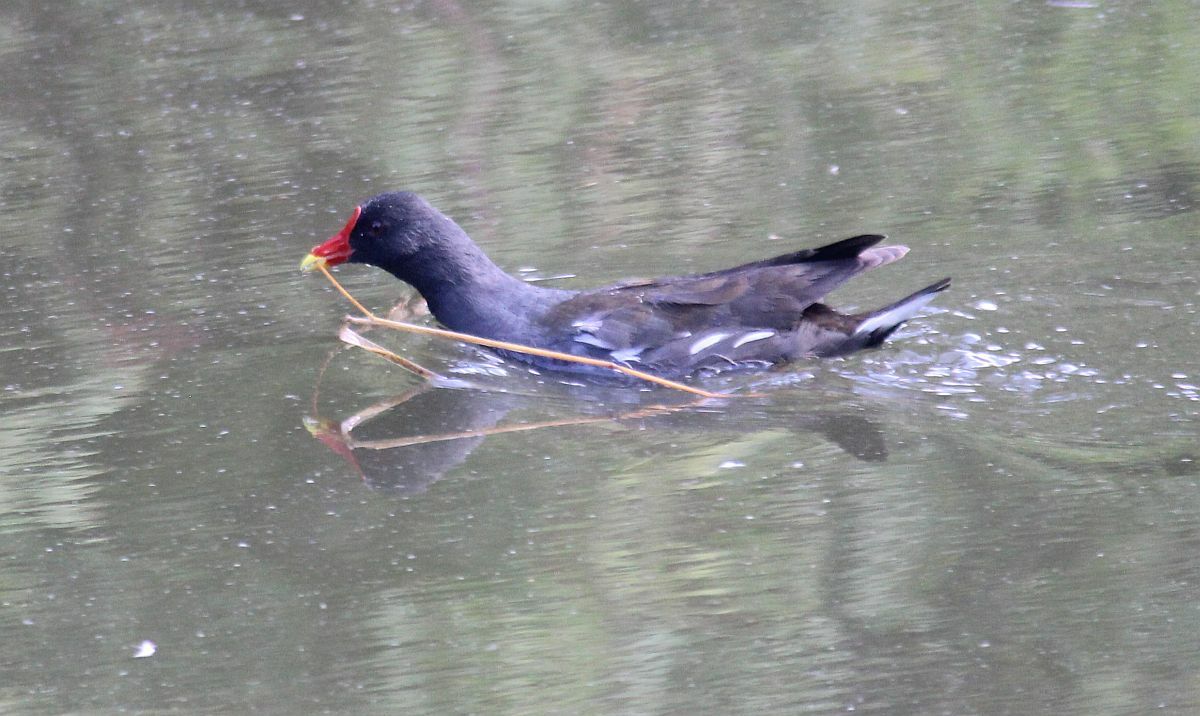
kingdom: Animalia
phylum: Chordata
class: Aves
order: Gruiformes
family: Rallidae
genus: Gallinula
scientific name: Gallinula chloropus
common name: Common moorhen
